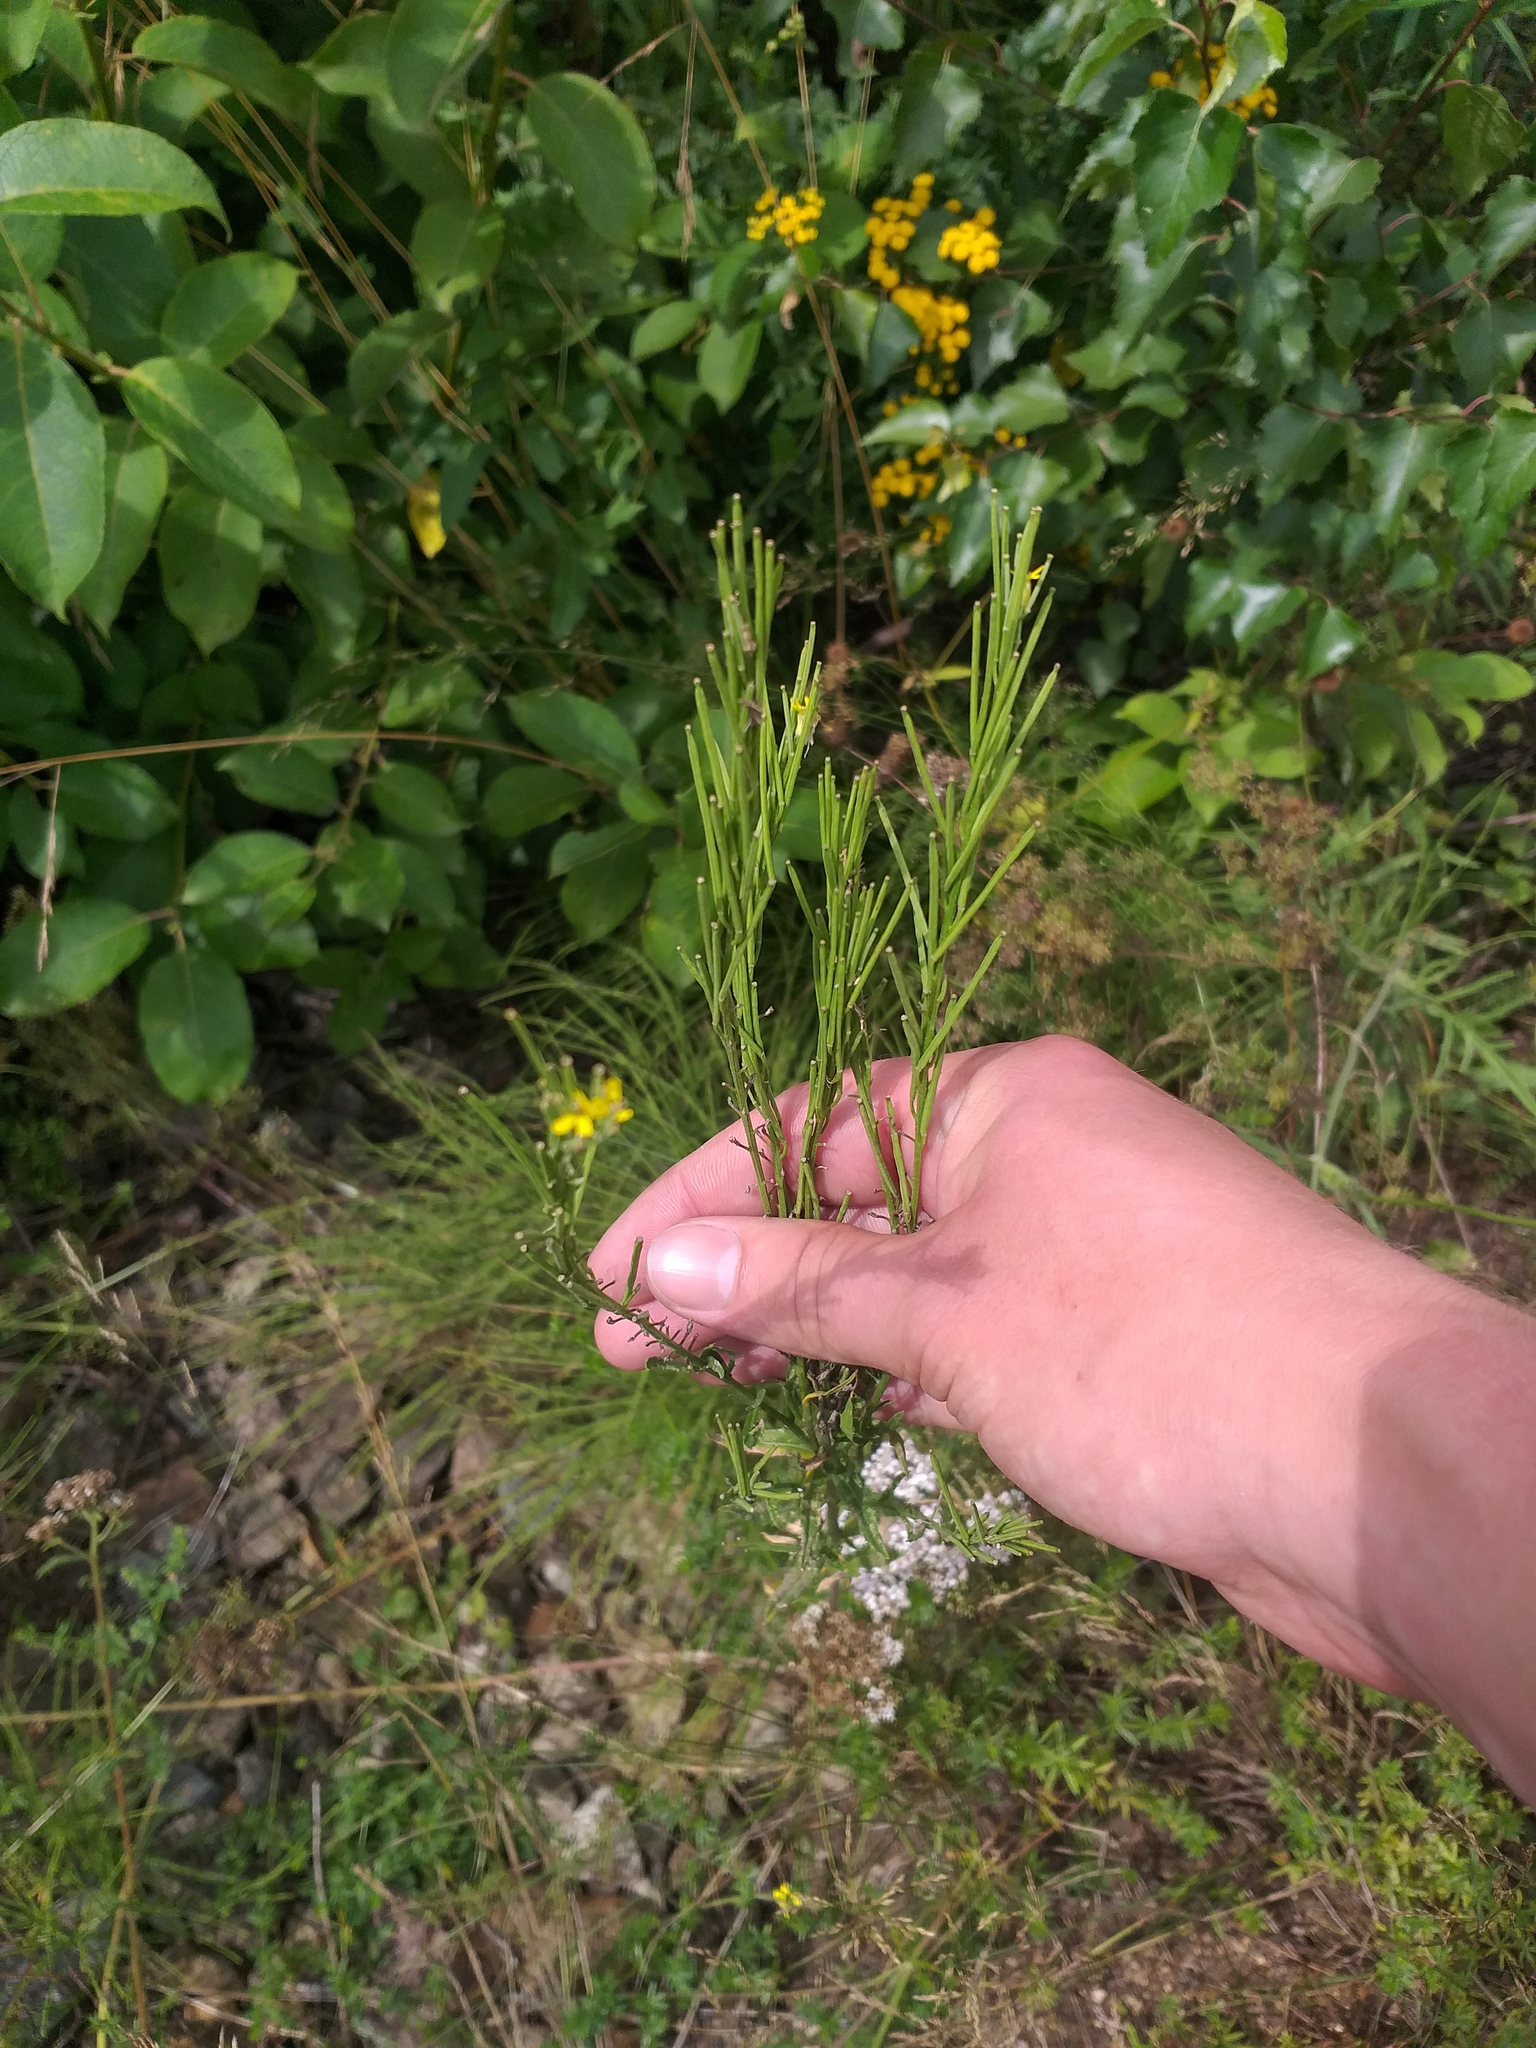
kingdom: Plantae
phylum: Tracheophyta
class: Magnoliopsida
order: Brassicales
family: Brassicaceae
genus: Erysimum
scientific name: Erysimum hieraciifolium
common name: European wallflower
